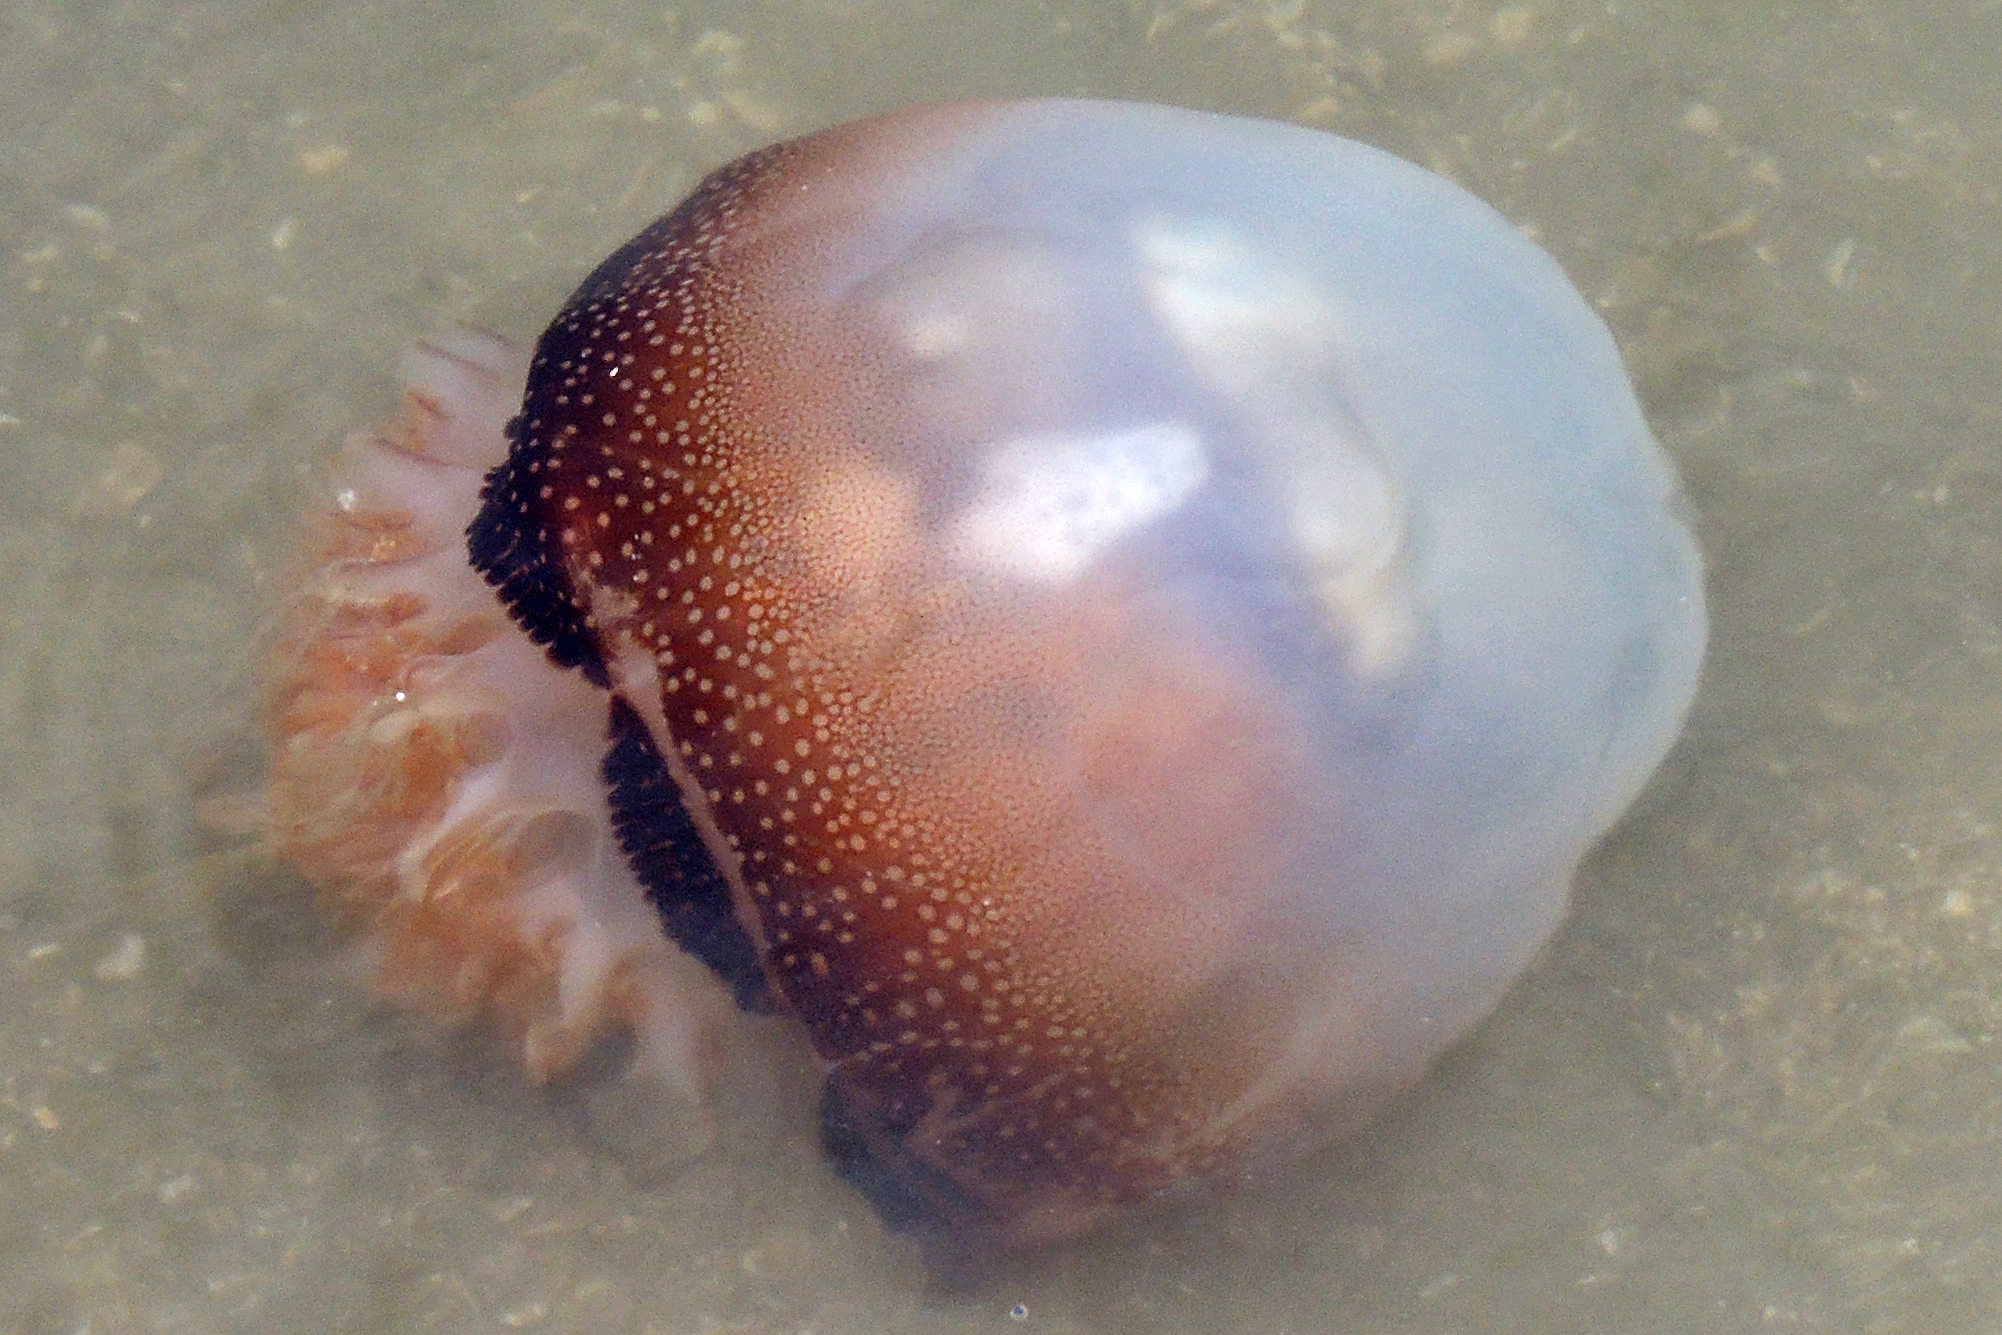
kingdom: Animalia
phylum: Cnidaria
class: Scyphozoa
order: Rhizostomeae
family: Stomolophidae
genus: Stomolophus
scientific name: Stomolophus meleagris
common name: Cabbagehead
